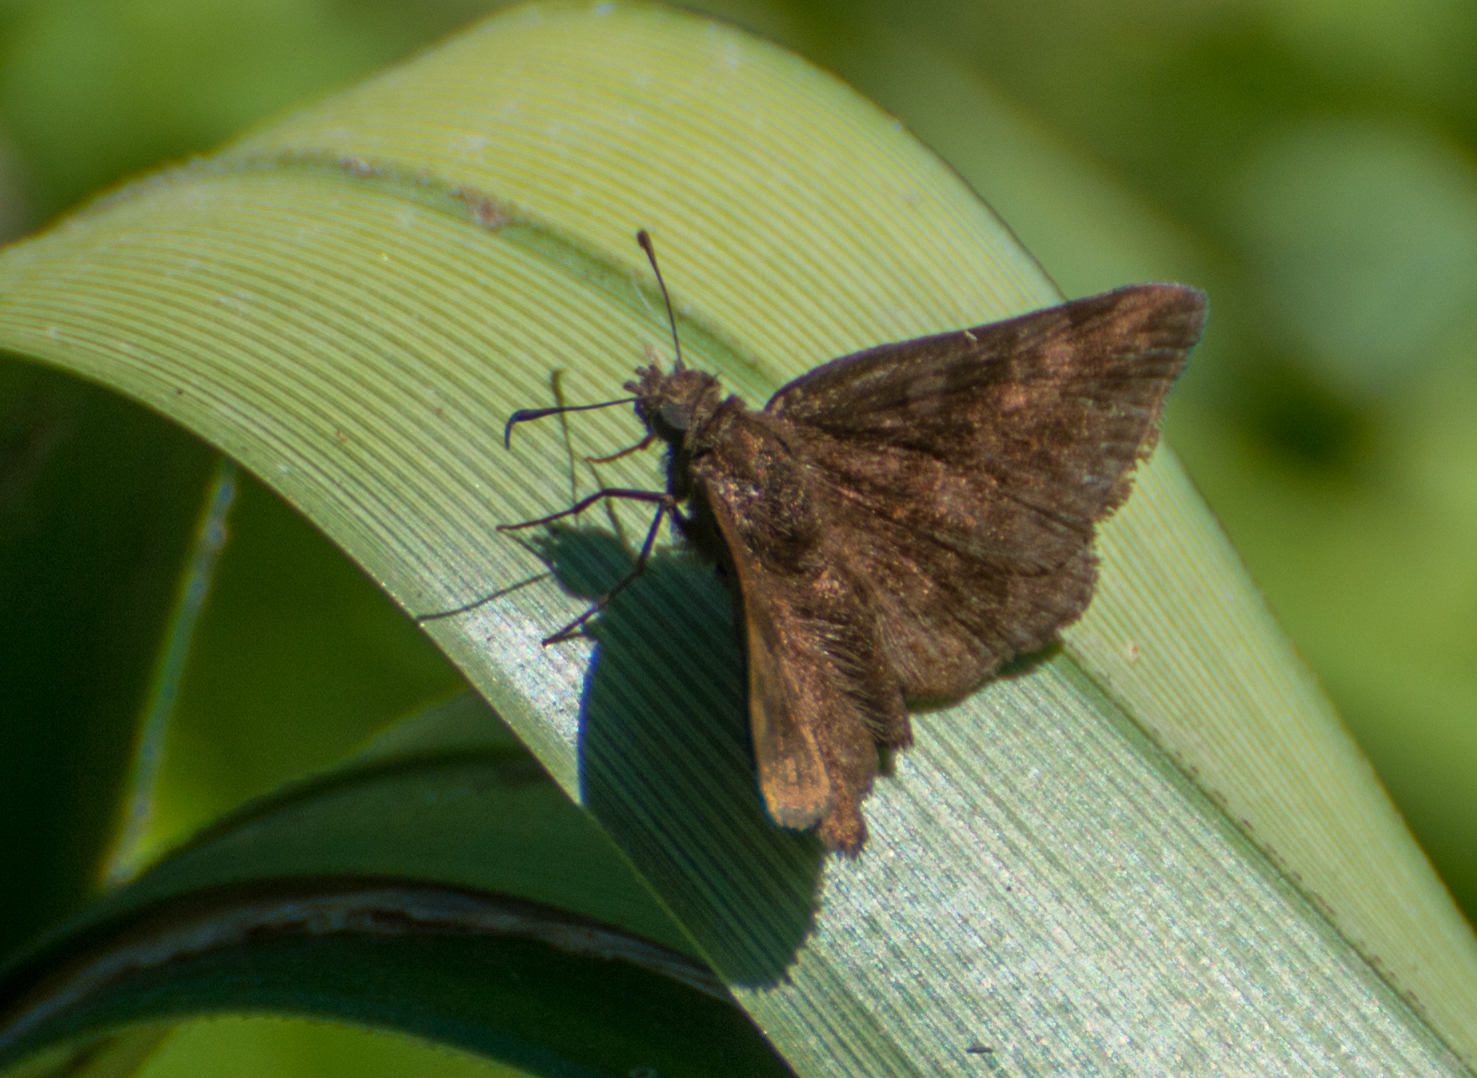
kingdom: Animalia
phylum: Arthropoda
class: Insecta
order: Lepidoptera
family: Hesperiidae
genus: Viola
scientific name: Viola minor
